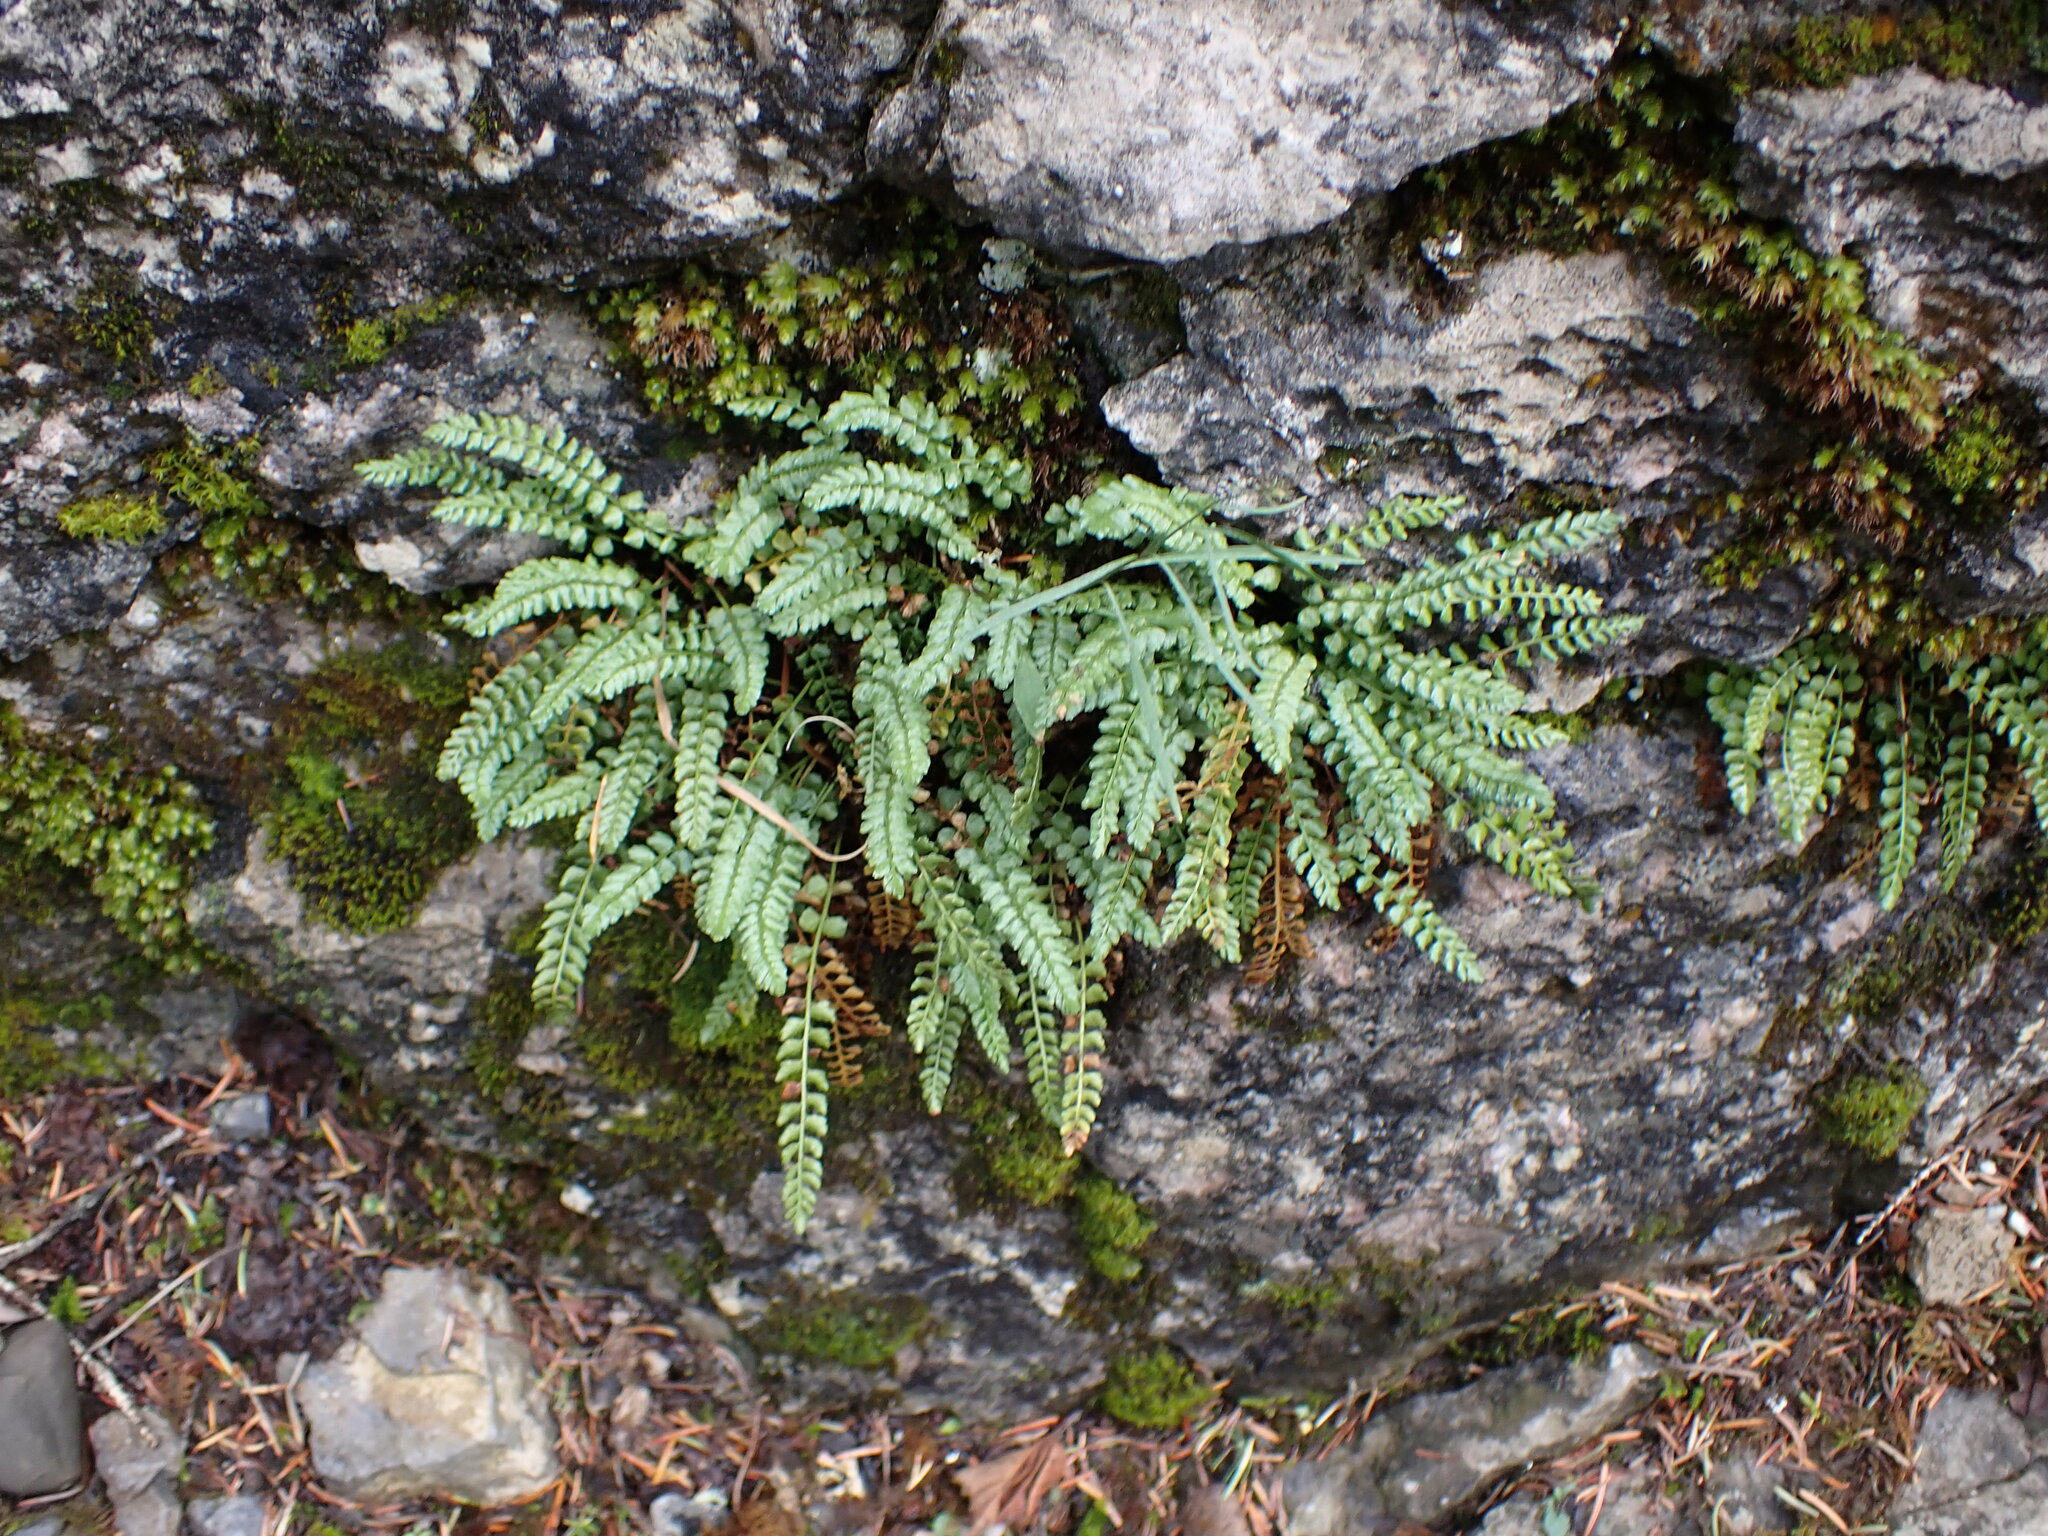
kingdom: Plantae
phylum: Tracheophyta
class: Polypodiopsida
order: Polypodiales
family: Aspleniaceae
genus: Asplenium
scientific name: Asplenium viride
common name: Green spleenwort
